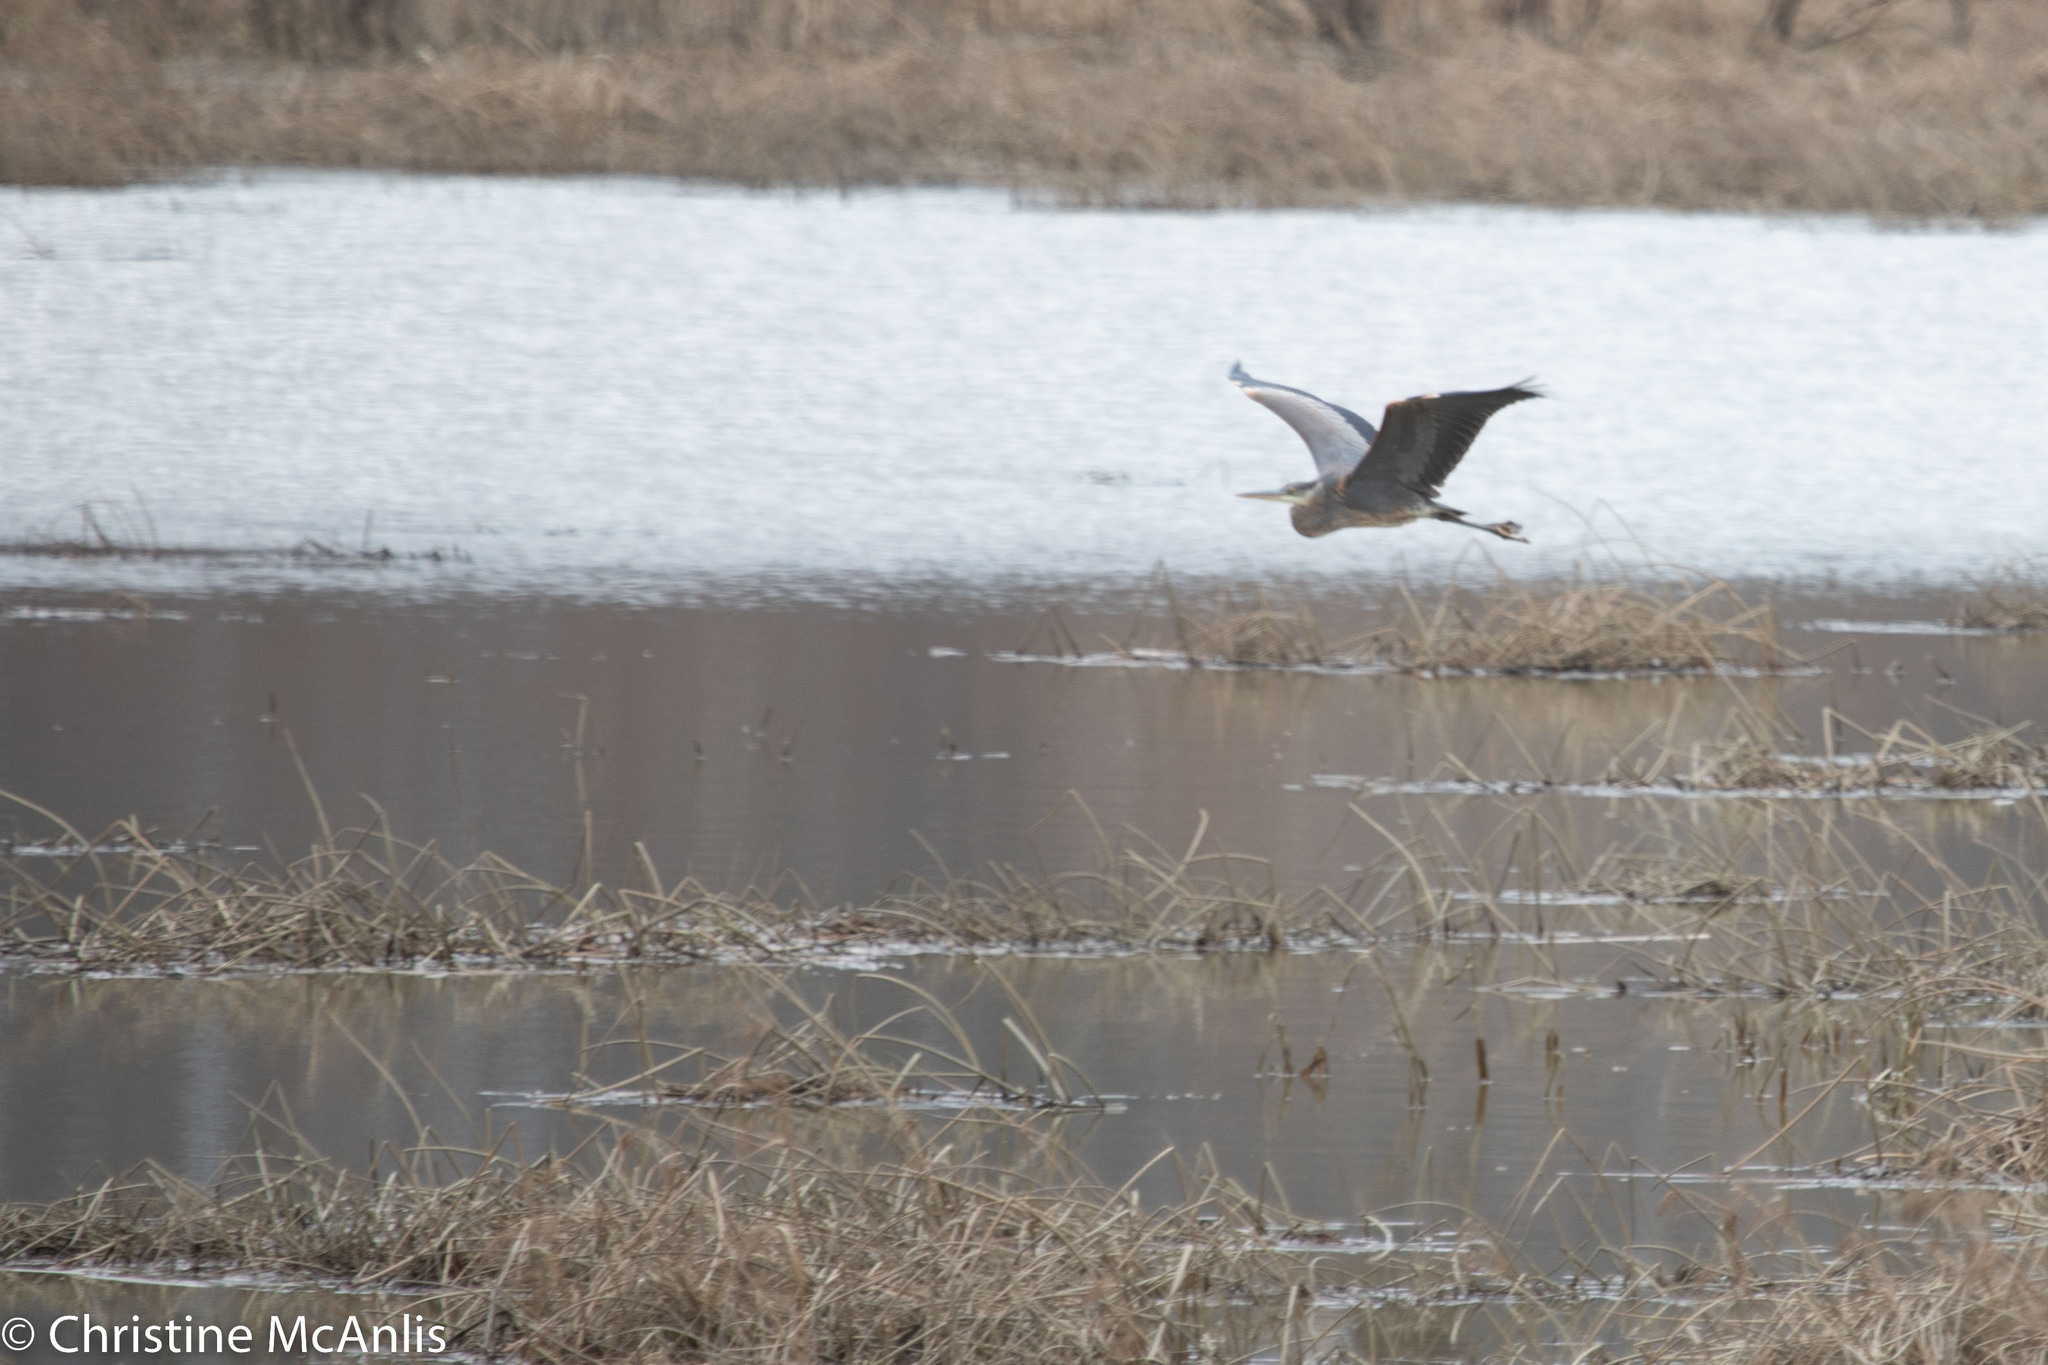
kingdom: Animalia
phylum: Chordata
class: Aves
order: Pelecaniformes
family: Ardeidae
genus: Ardea
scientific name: Ardea herodias
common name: Great blue heron
